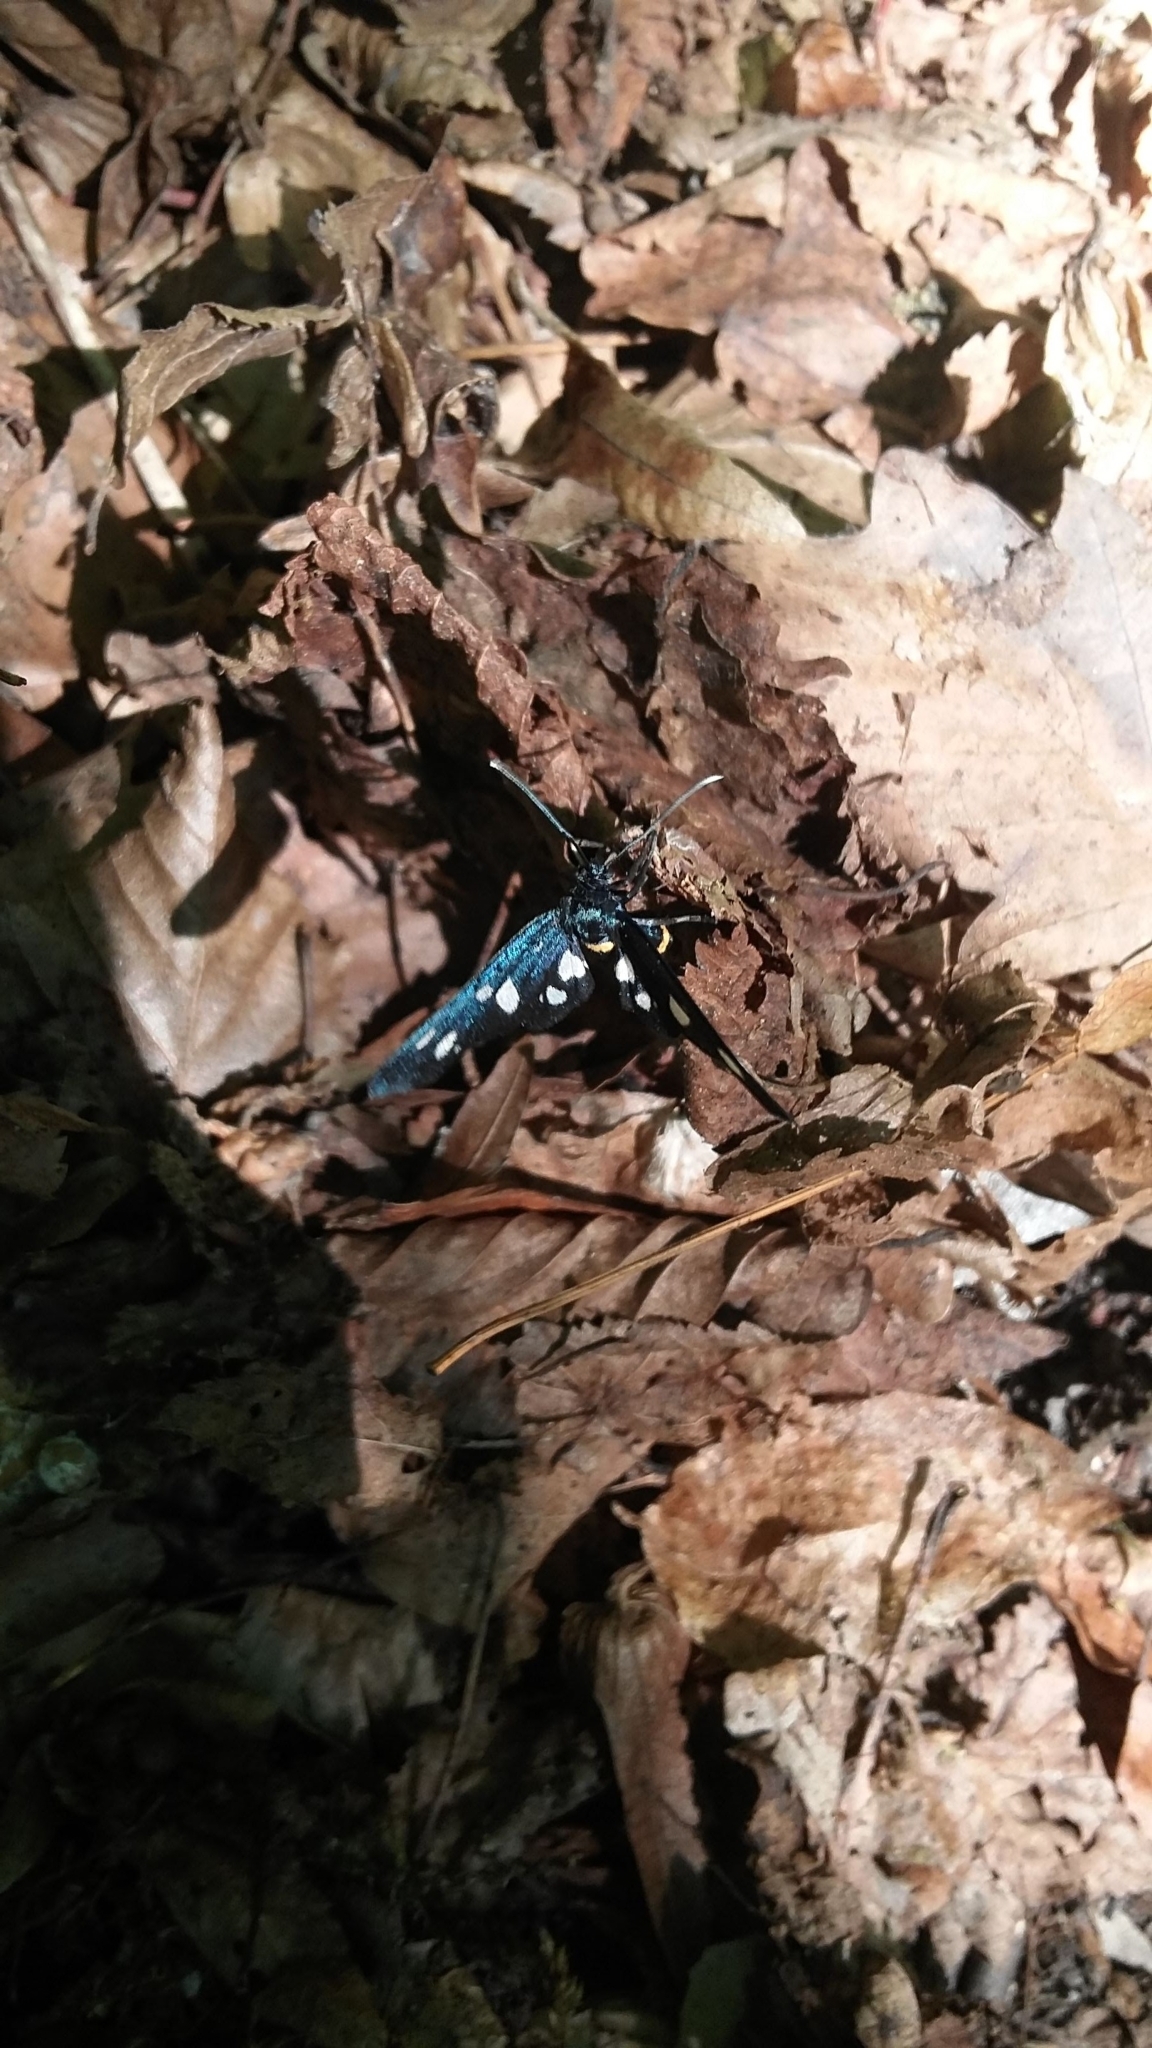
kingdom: Animalia
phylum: Arthropoda
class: Insecta
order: Lepidoptera
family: Erebidae
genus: Amata
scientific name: Amata phegea
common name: Nine-spotted
